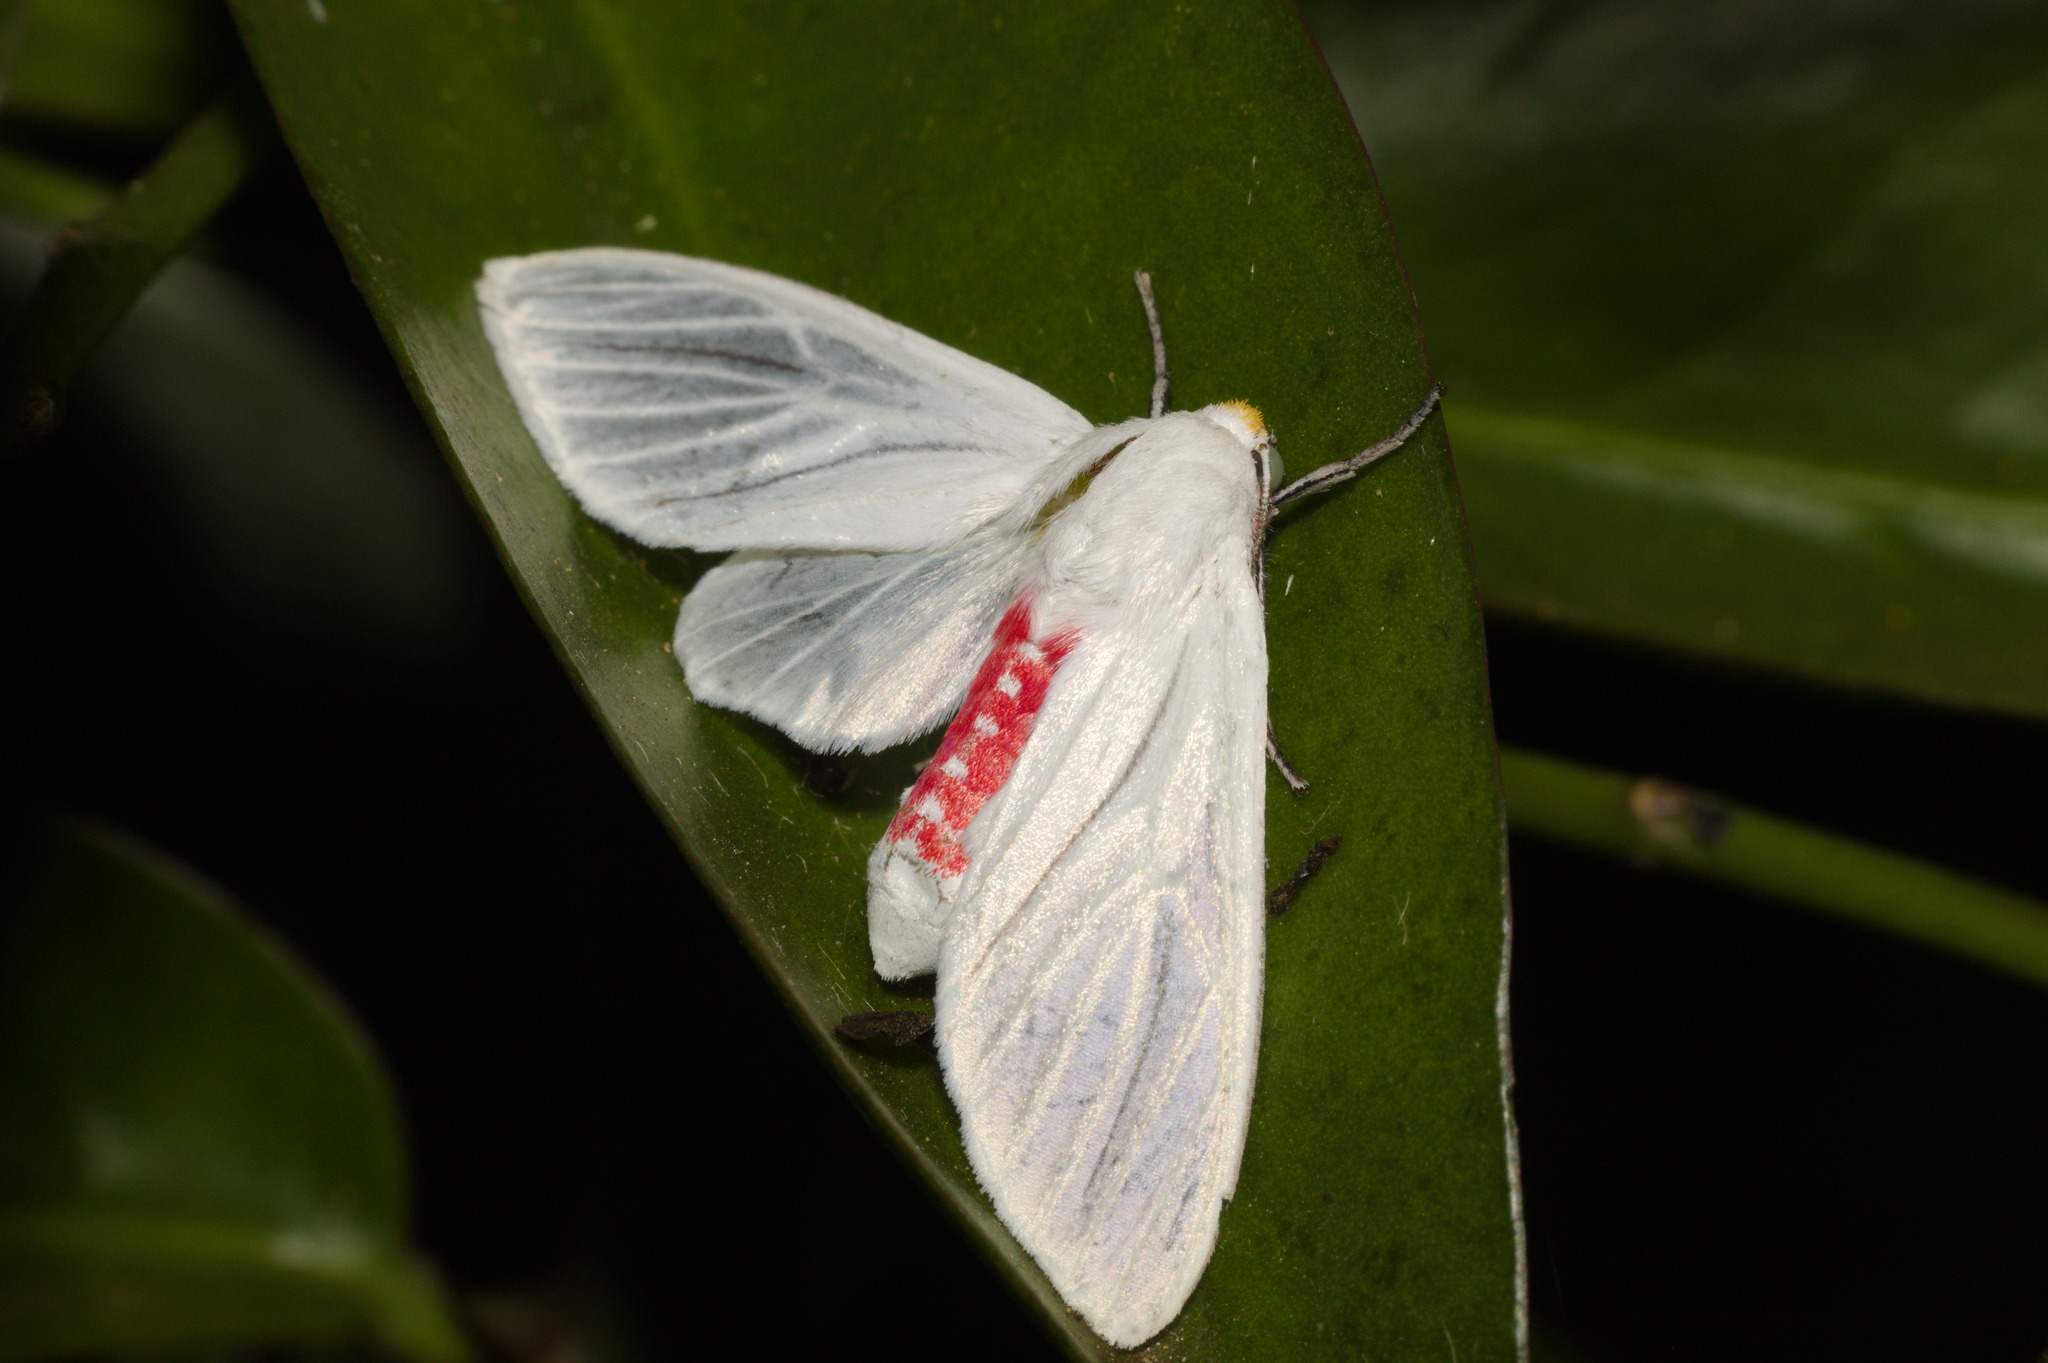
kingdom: Animalia
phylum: Arthropoda
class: Insecta
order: Lepidoptera
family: Erebidae
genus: Eupseudosoma
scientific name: Eupseudosoma involuta
